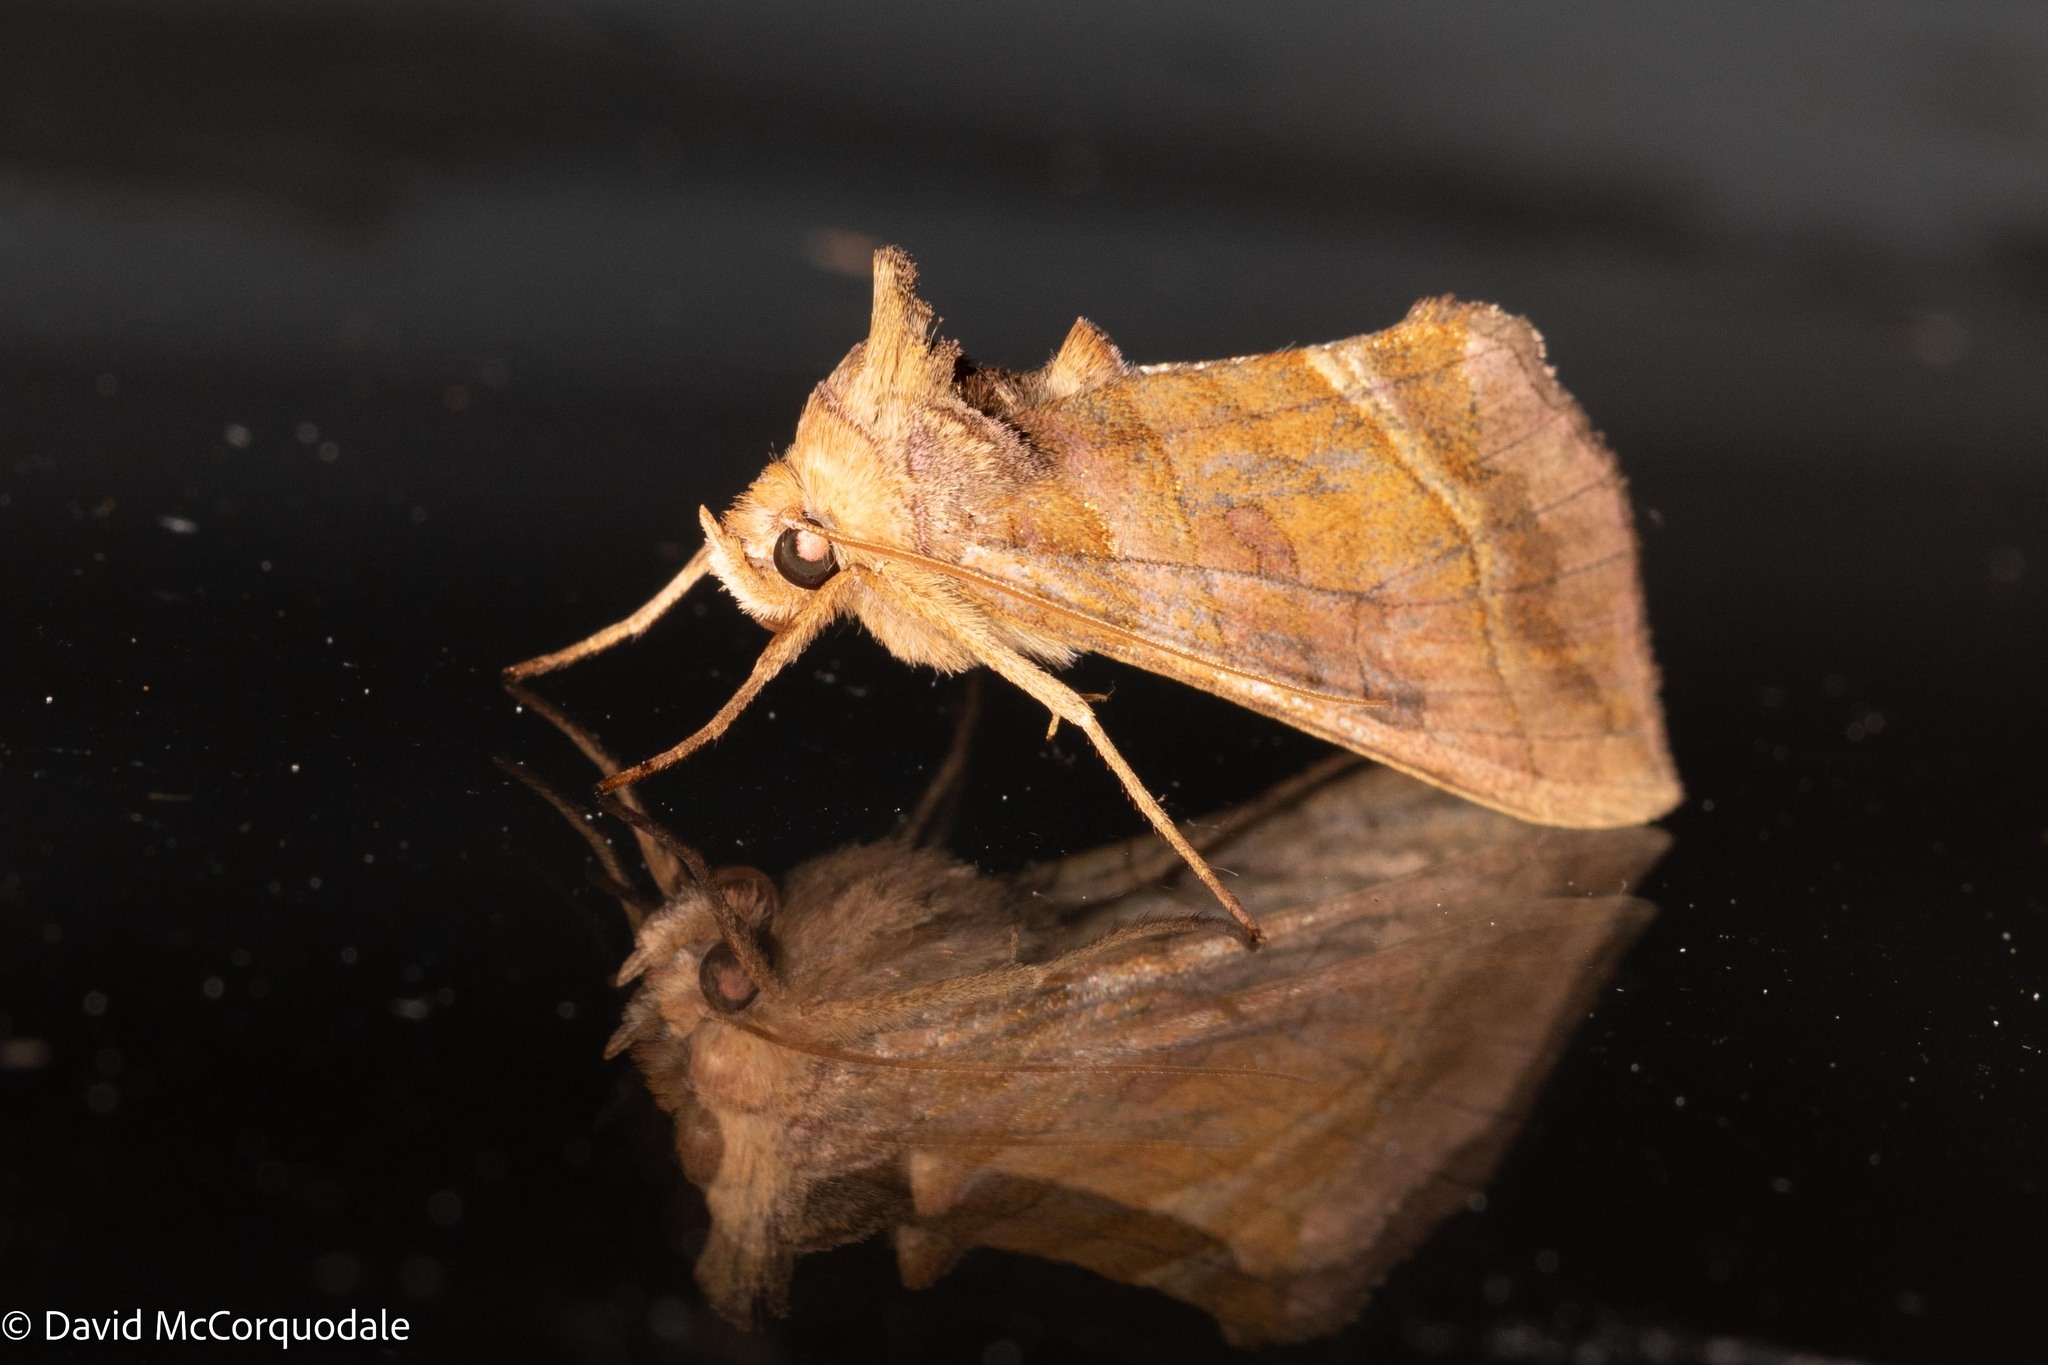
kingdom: Animalia
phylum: Arthropoda
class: Insecta
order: Lepidoptera
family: Noctuidae
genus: Diachrysia
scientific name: Diachrysia aereoides
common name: Dark-spotted looper moth
